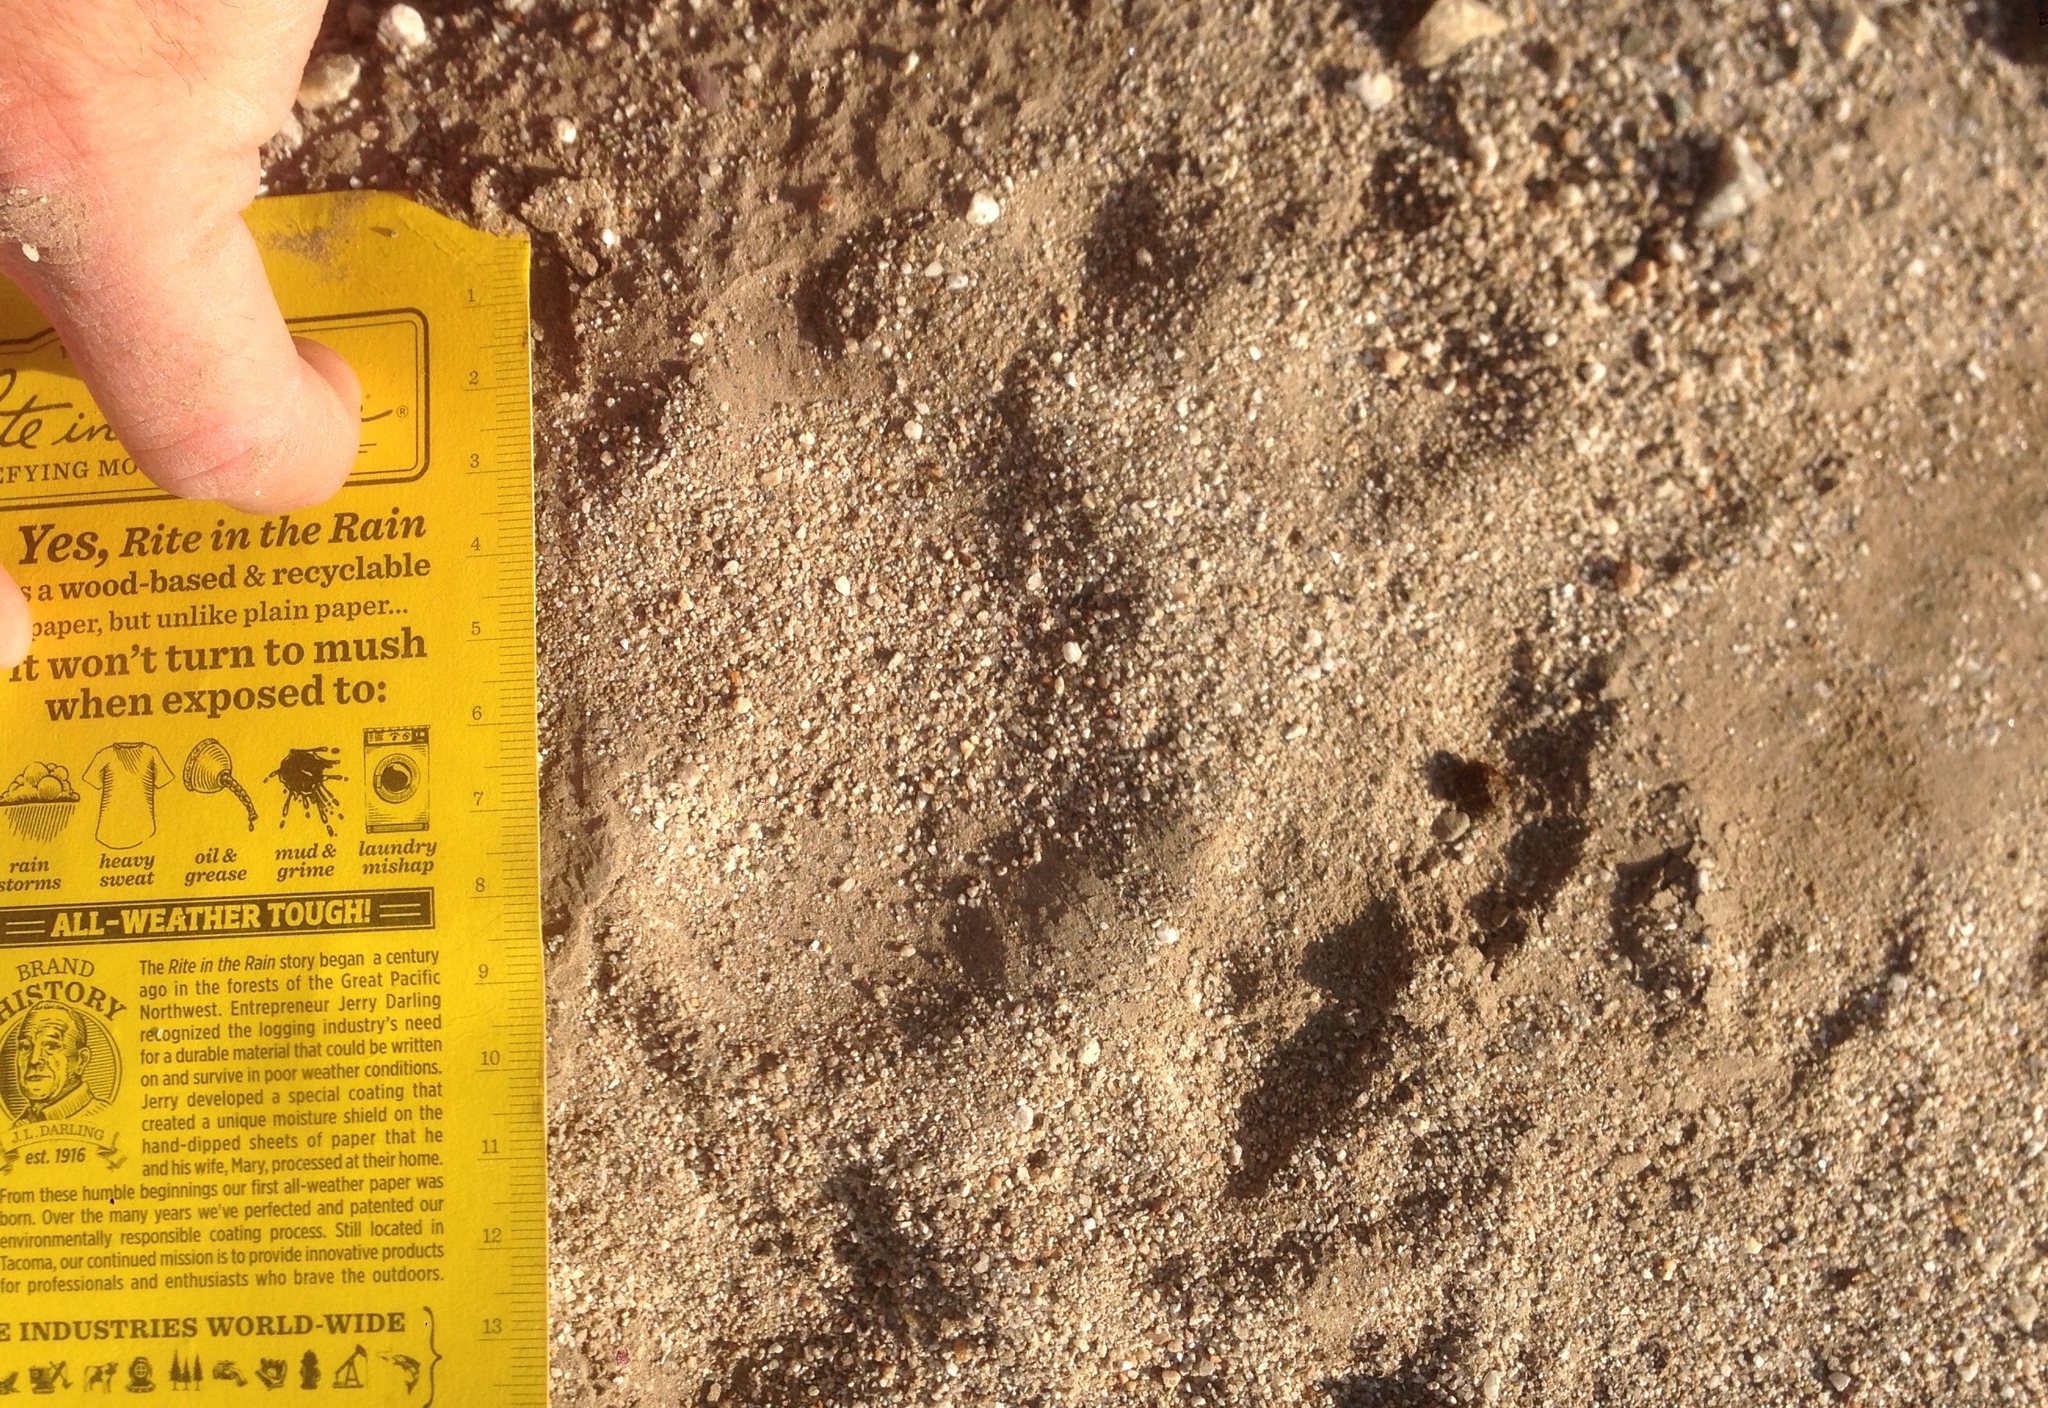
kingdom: Animalia
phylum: Chordata
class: Mammalia
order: Carnivora
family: Ursidae
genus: Ursus
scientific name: Ursus americanus
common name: American black bear
